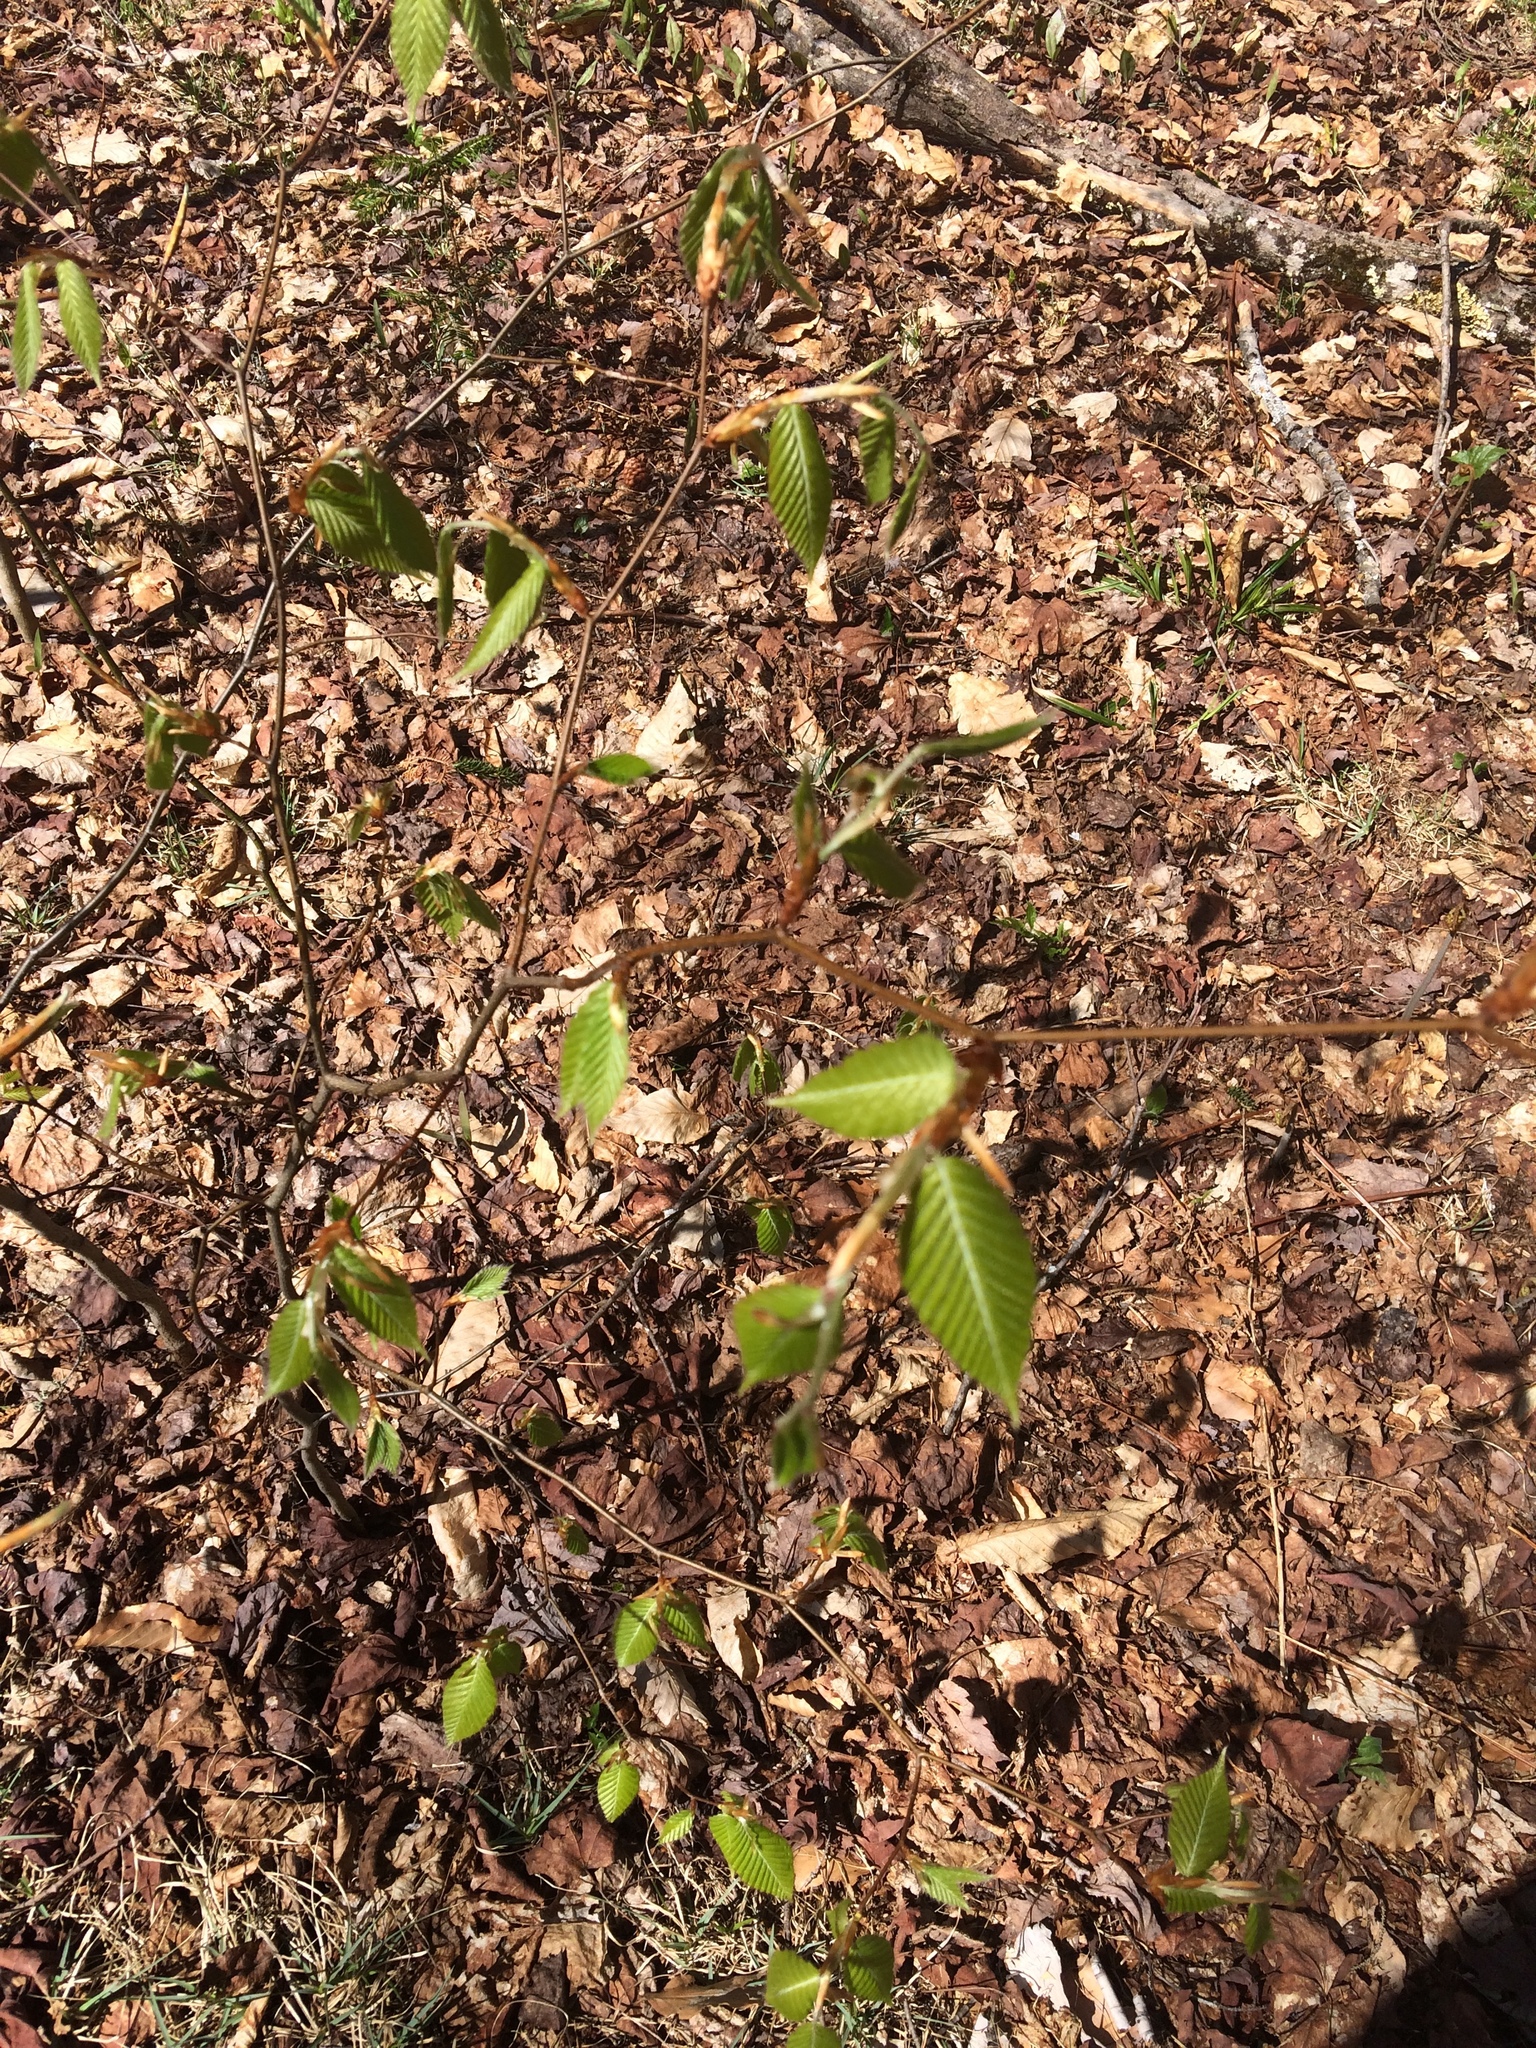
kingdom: Plantae
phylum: Tracheophyta
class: Magnoliopsida
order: Fagales
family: Fagaceae
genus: Fagus
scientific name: Fagus grandifolia
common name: American beech
